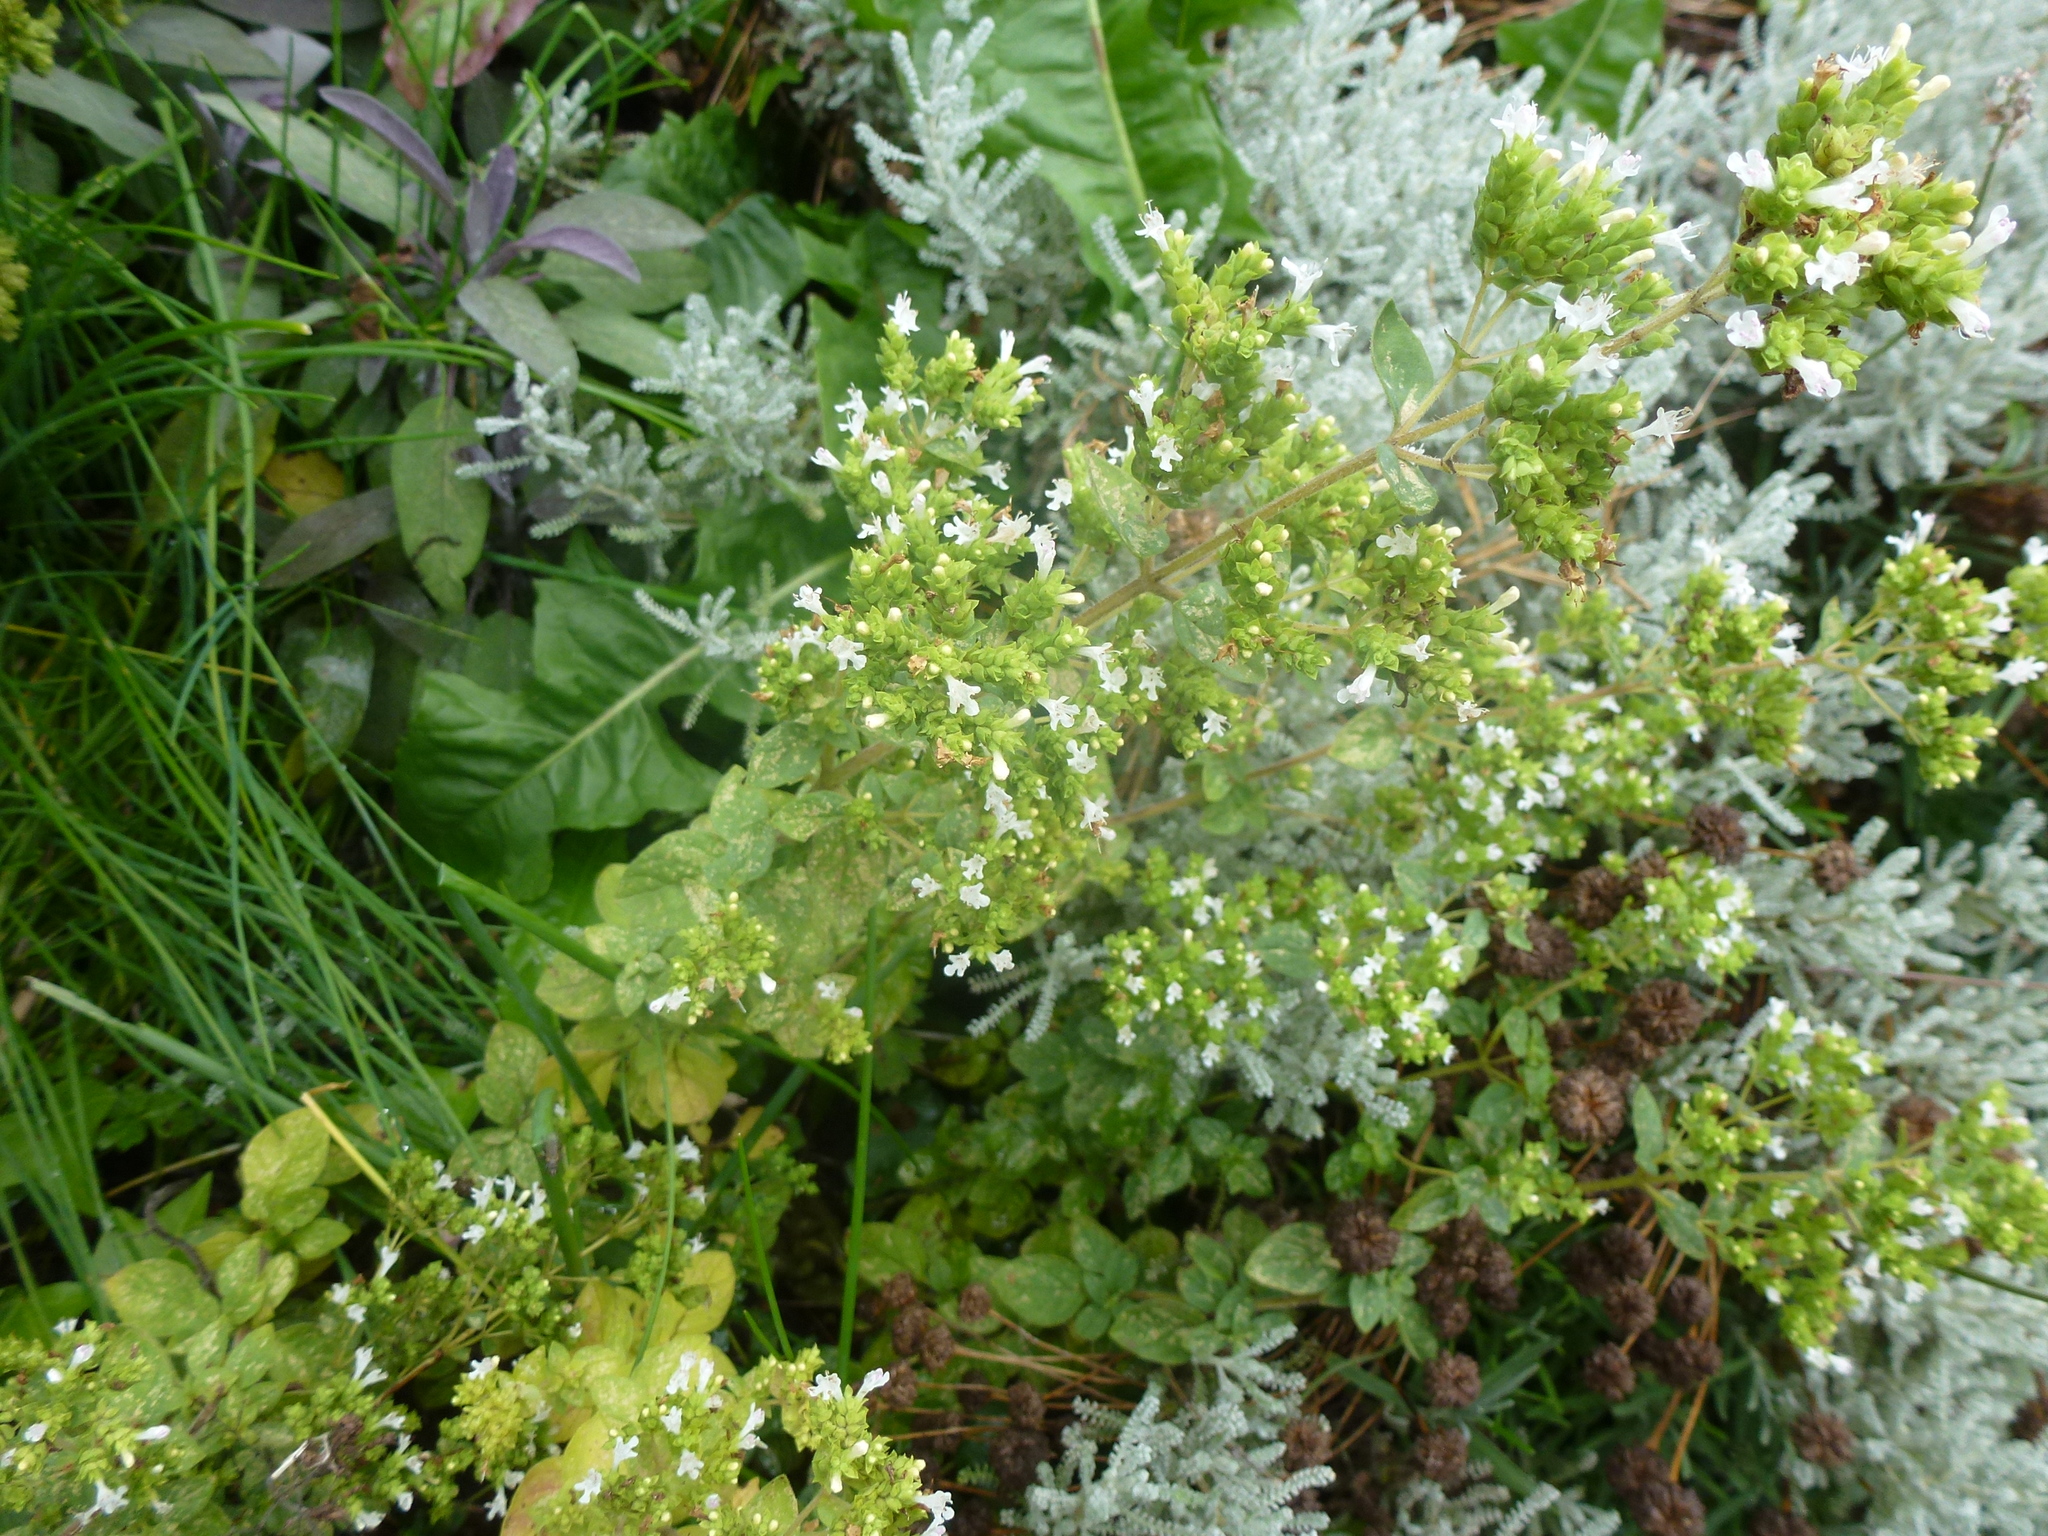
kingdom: Plantae
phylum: Tracheophyta
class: Magnoliopsida
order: Lamiales
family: Lamiaceae
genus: Origanum
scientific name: Origanum vulgare
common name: Wild marjoram
